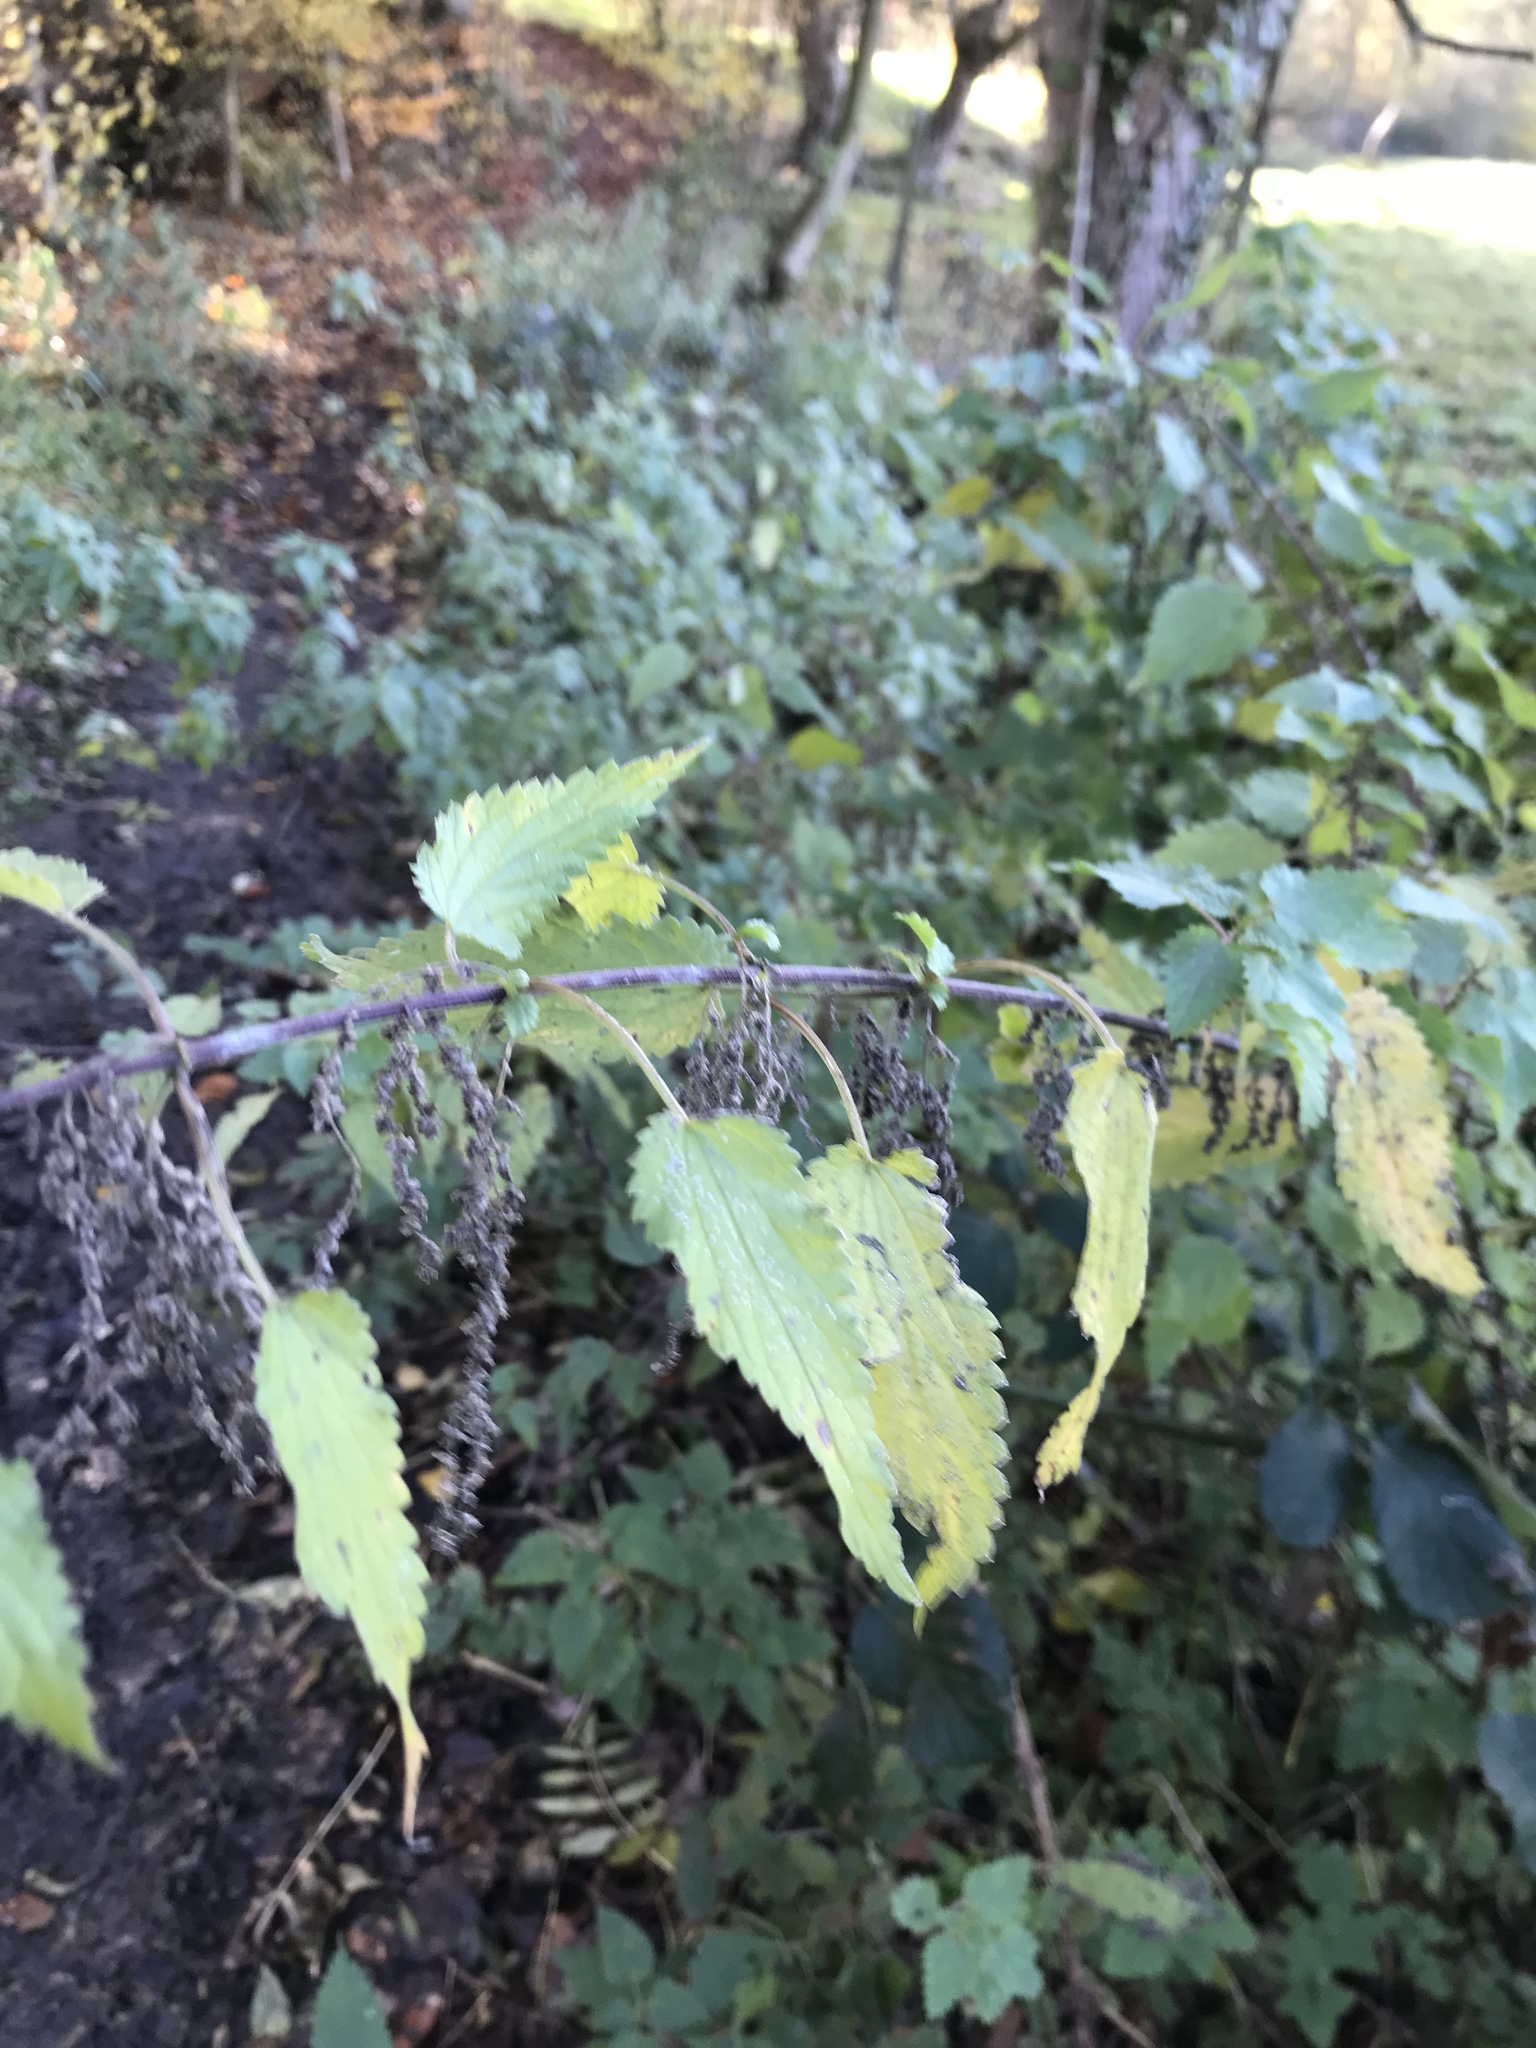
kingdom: Plantae
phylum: Tracheophyta
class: Magnoliopsida
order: Rosales
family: Urticaceae
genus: Urtica
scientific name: Urtica dioica
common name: Common nettle
